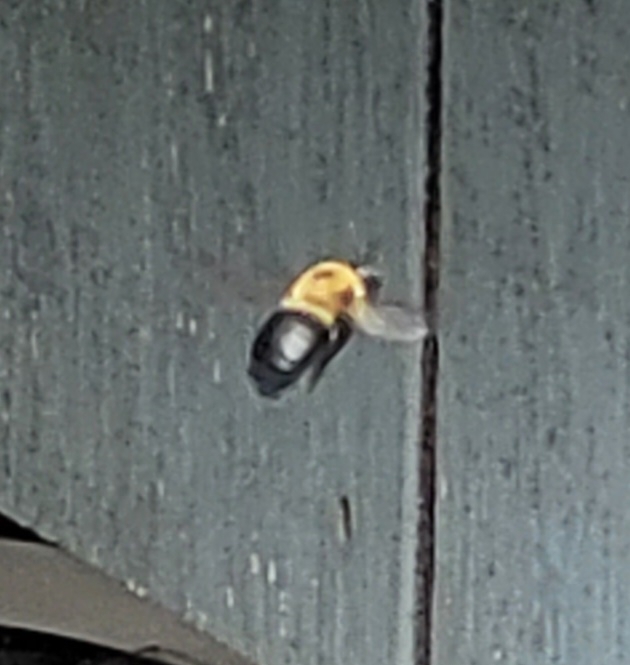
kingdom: Animalia
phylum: Arthropoda
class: Insecta
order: Hymenoptera
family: Apidae
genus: Xylocopa
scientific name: Xylocopa virginica
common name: Carpenter bee
